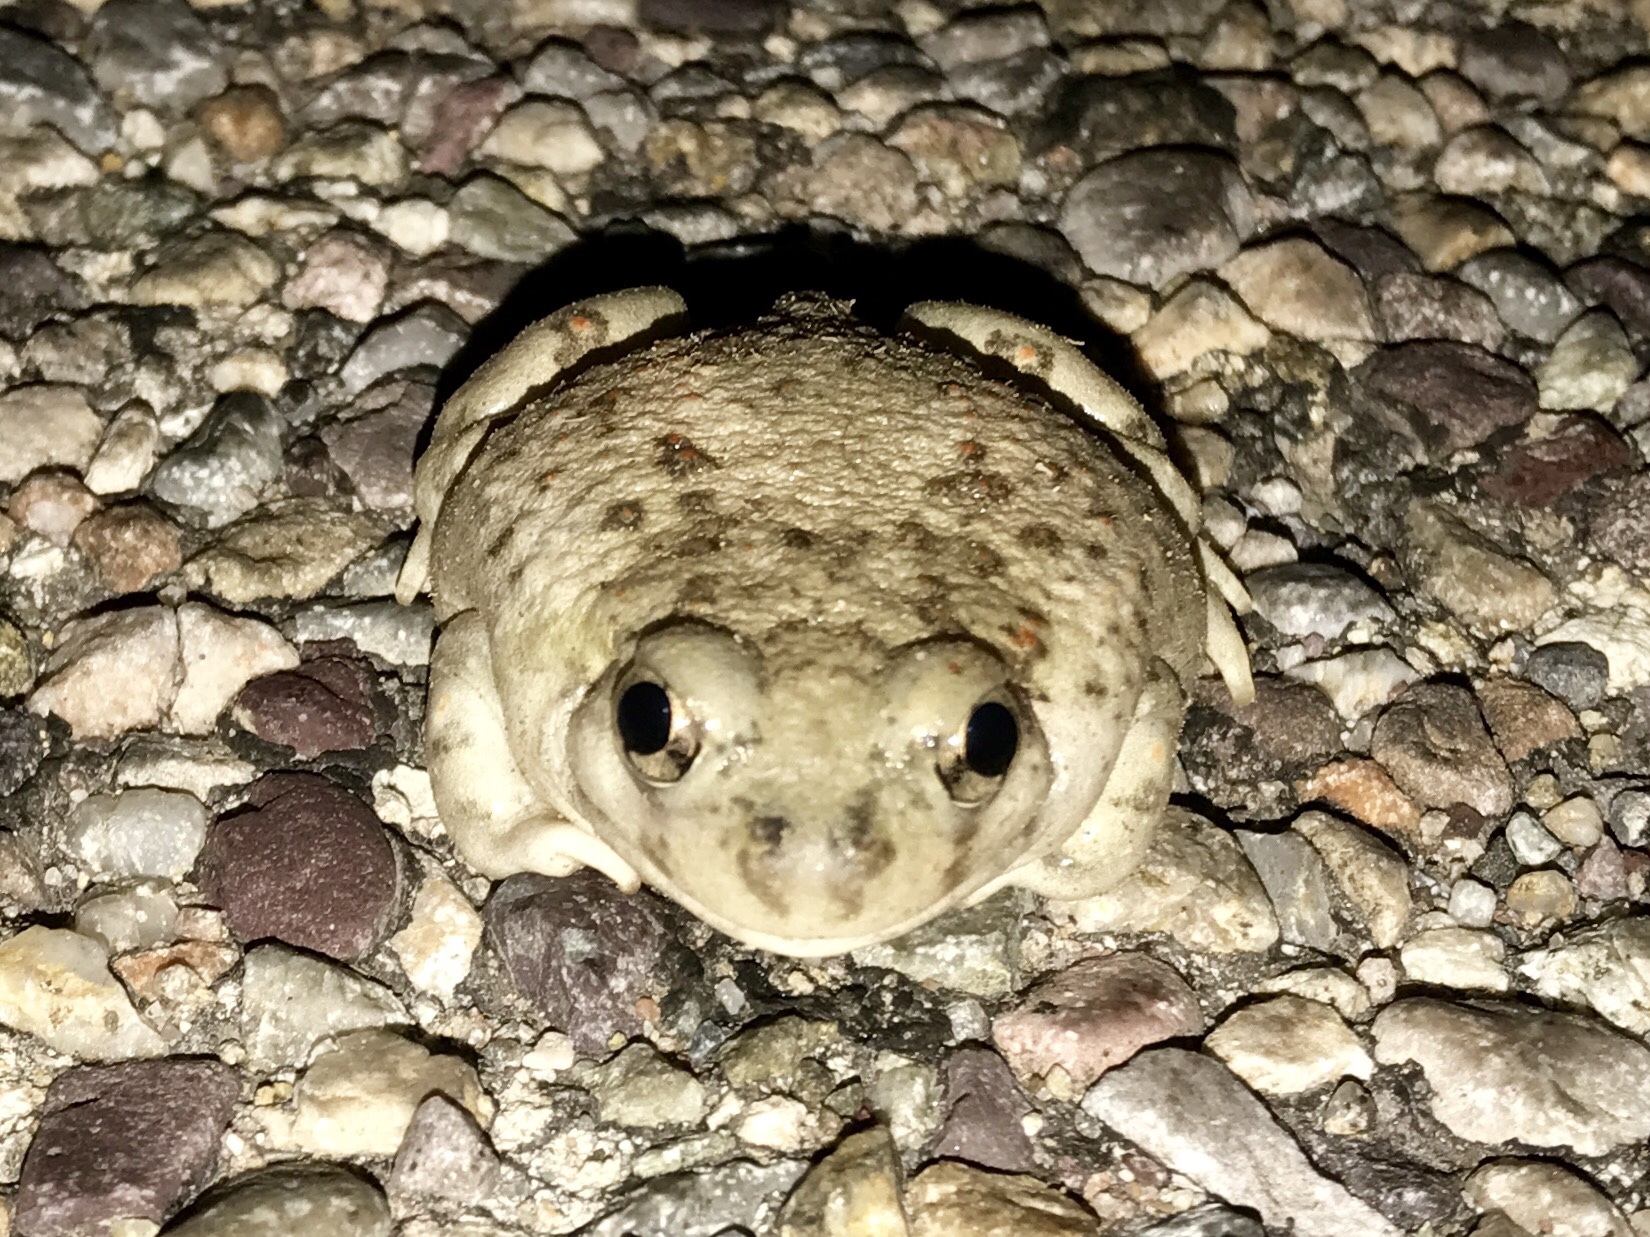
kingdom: Animalia
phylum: Chordata
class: Amphibia
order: Anura
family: Scaphiopodidae
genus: Spea
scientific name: Spea multiplicata
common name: Mexican spadefoot
